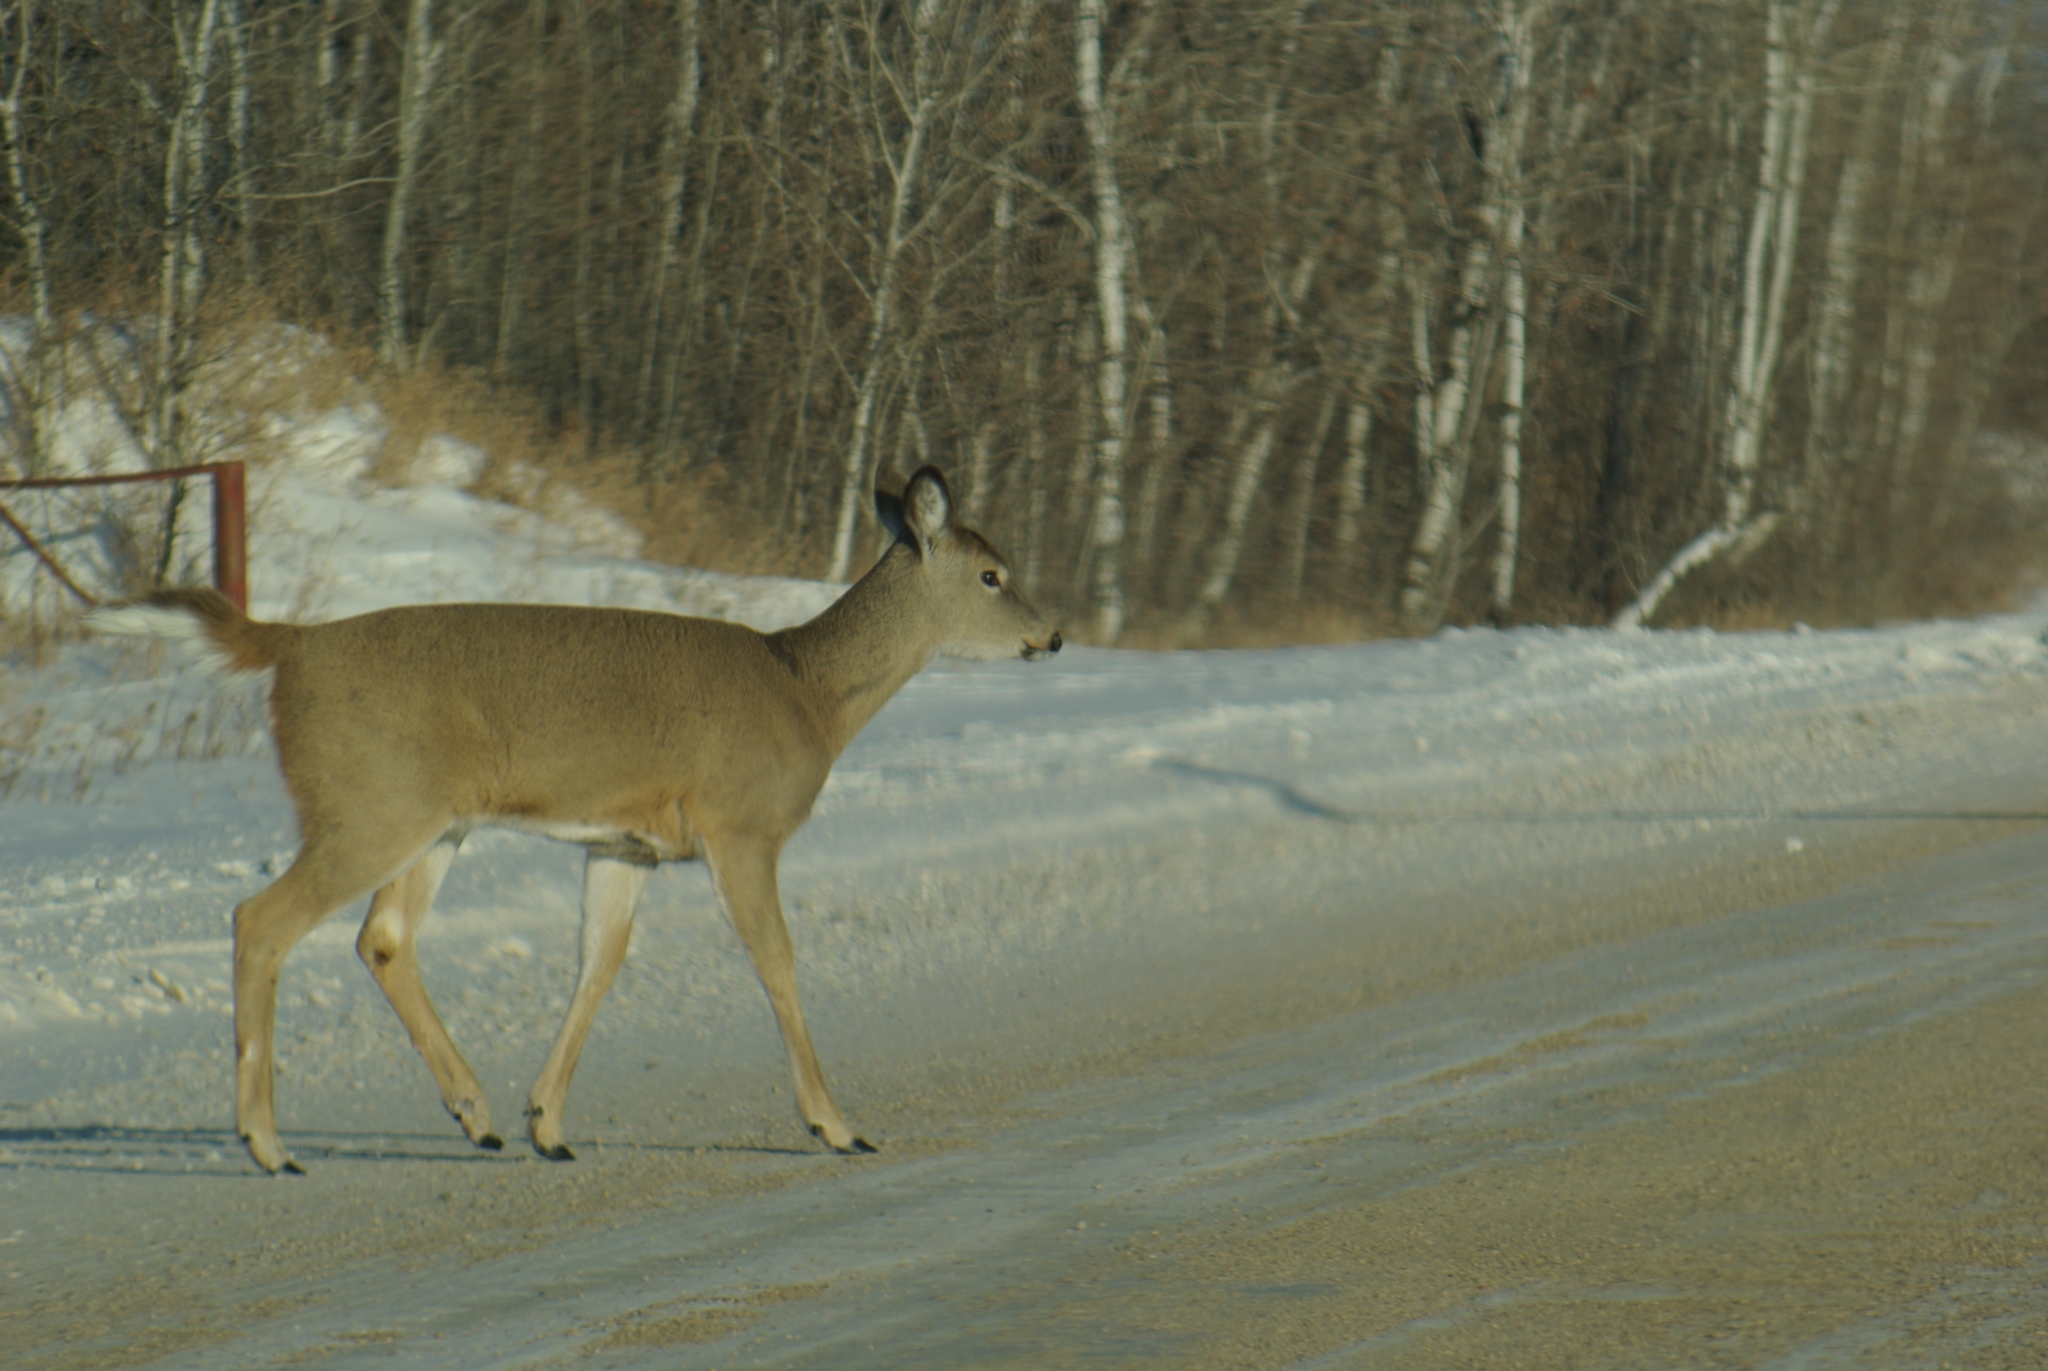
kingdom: Animalia
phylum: Chordata
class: Mammalia
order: Artiodactyla
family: Cervidae
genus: Odocoileus
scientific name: Odocoileus virginianus
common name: White-tailed deer
